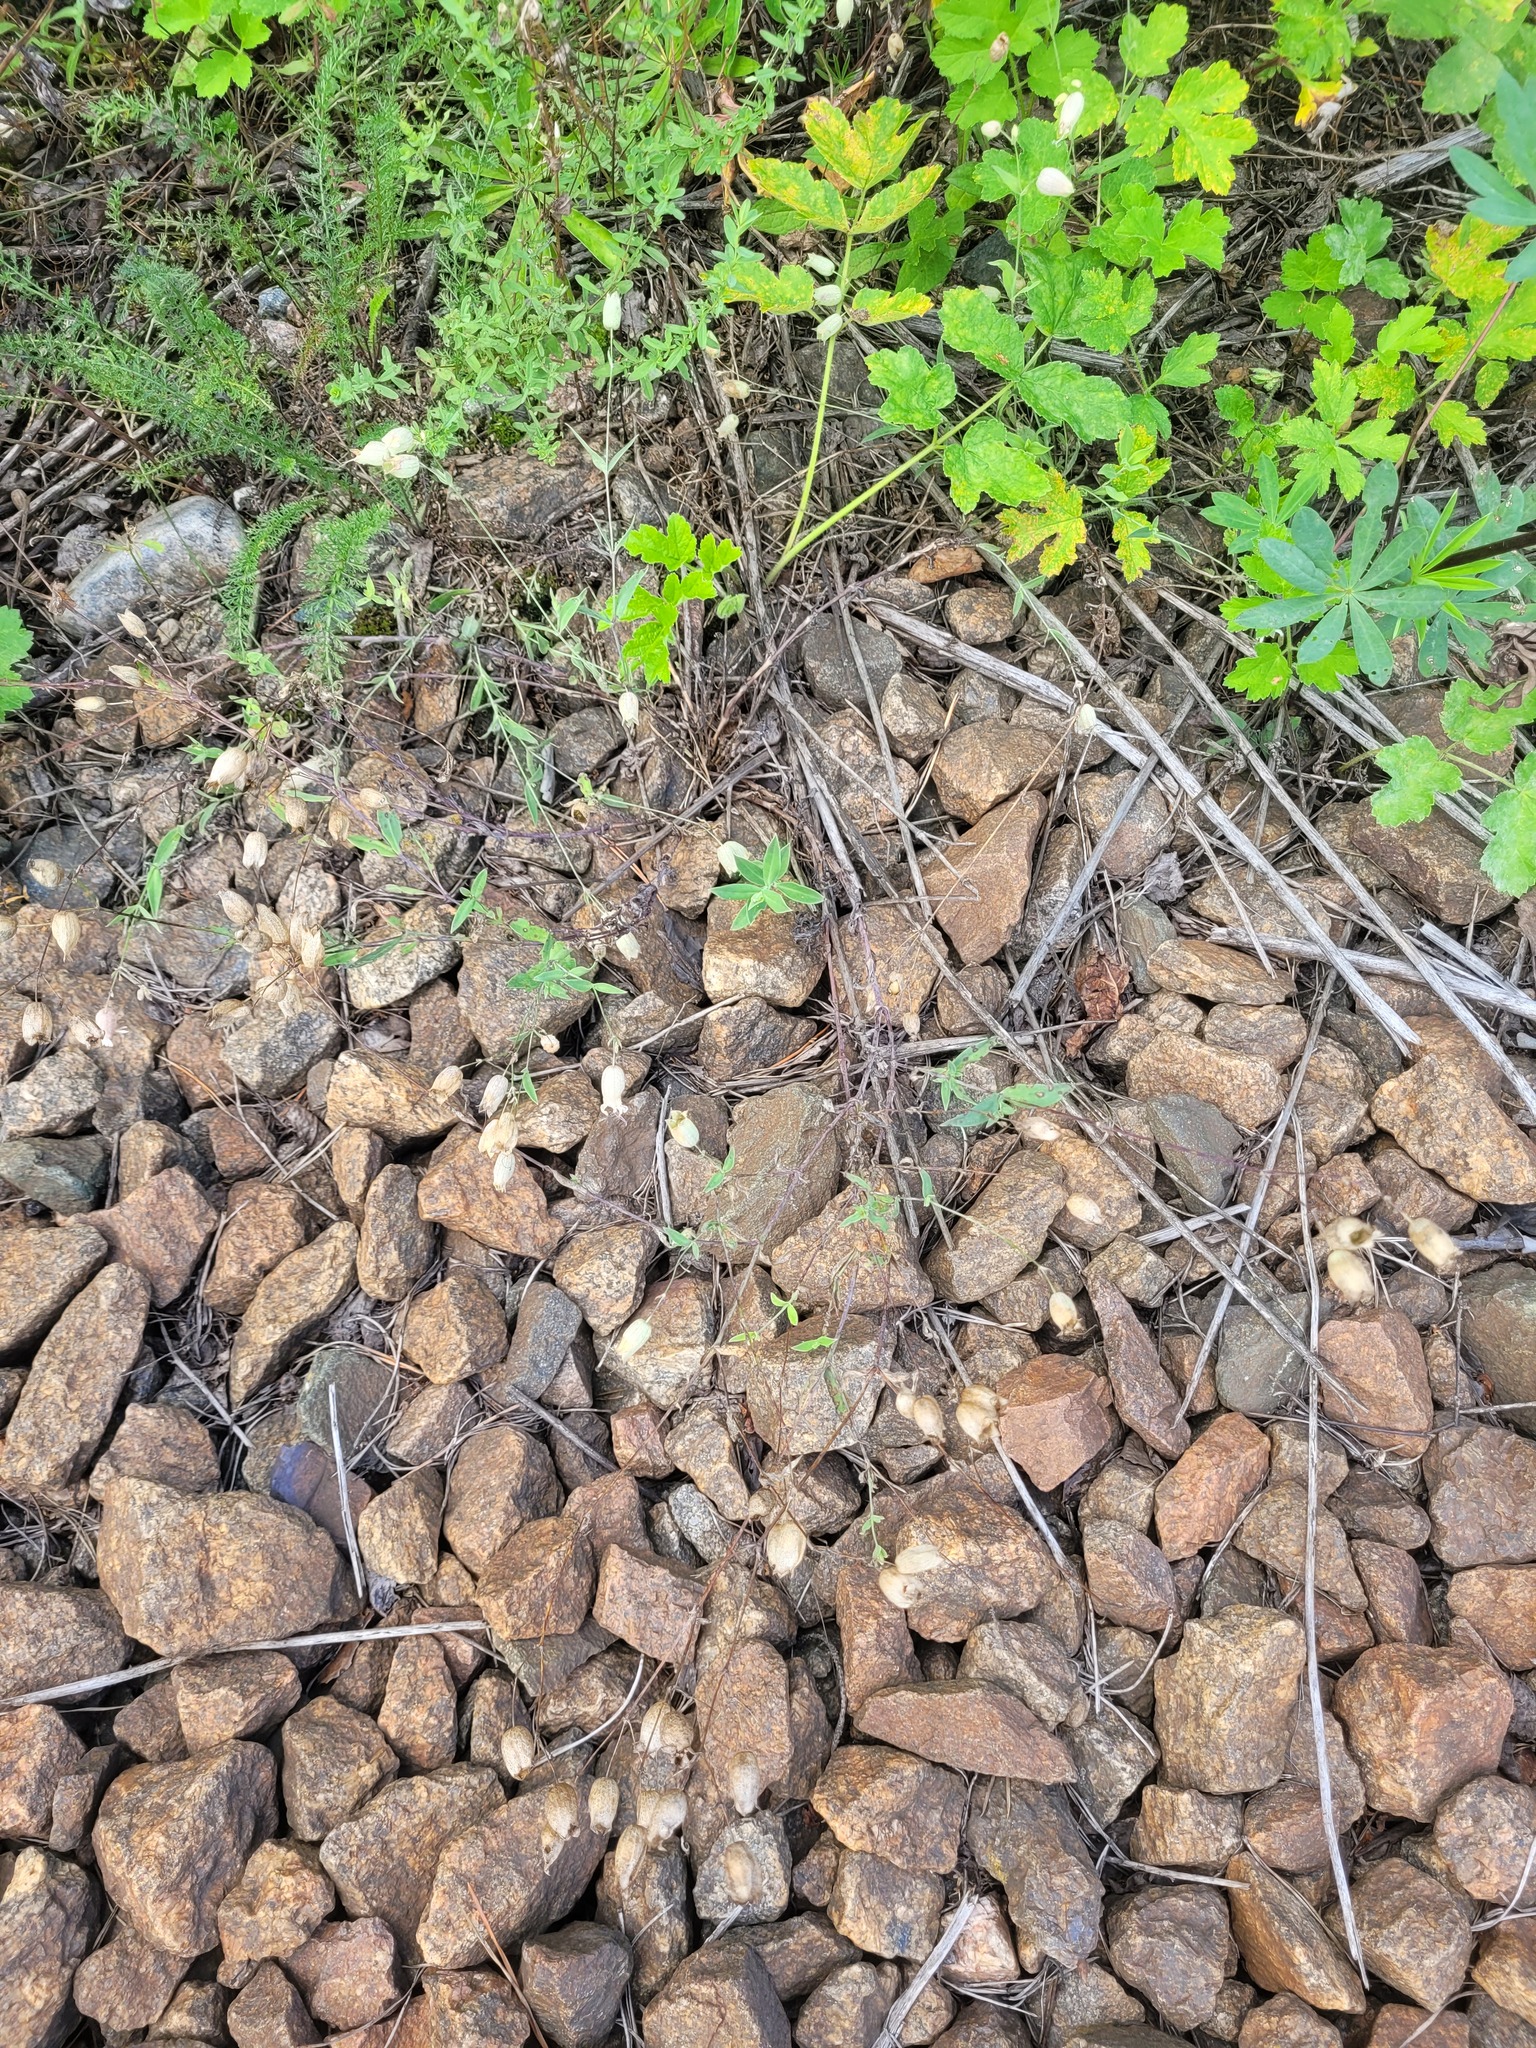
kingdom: Plantae
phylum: Tracheophyta
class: Magnoliopsida
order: Caryophyllales
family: Caryophyllaceae
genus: Silene
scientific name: Silene vulgaris
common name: Bladder campion
